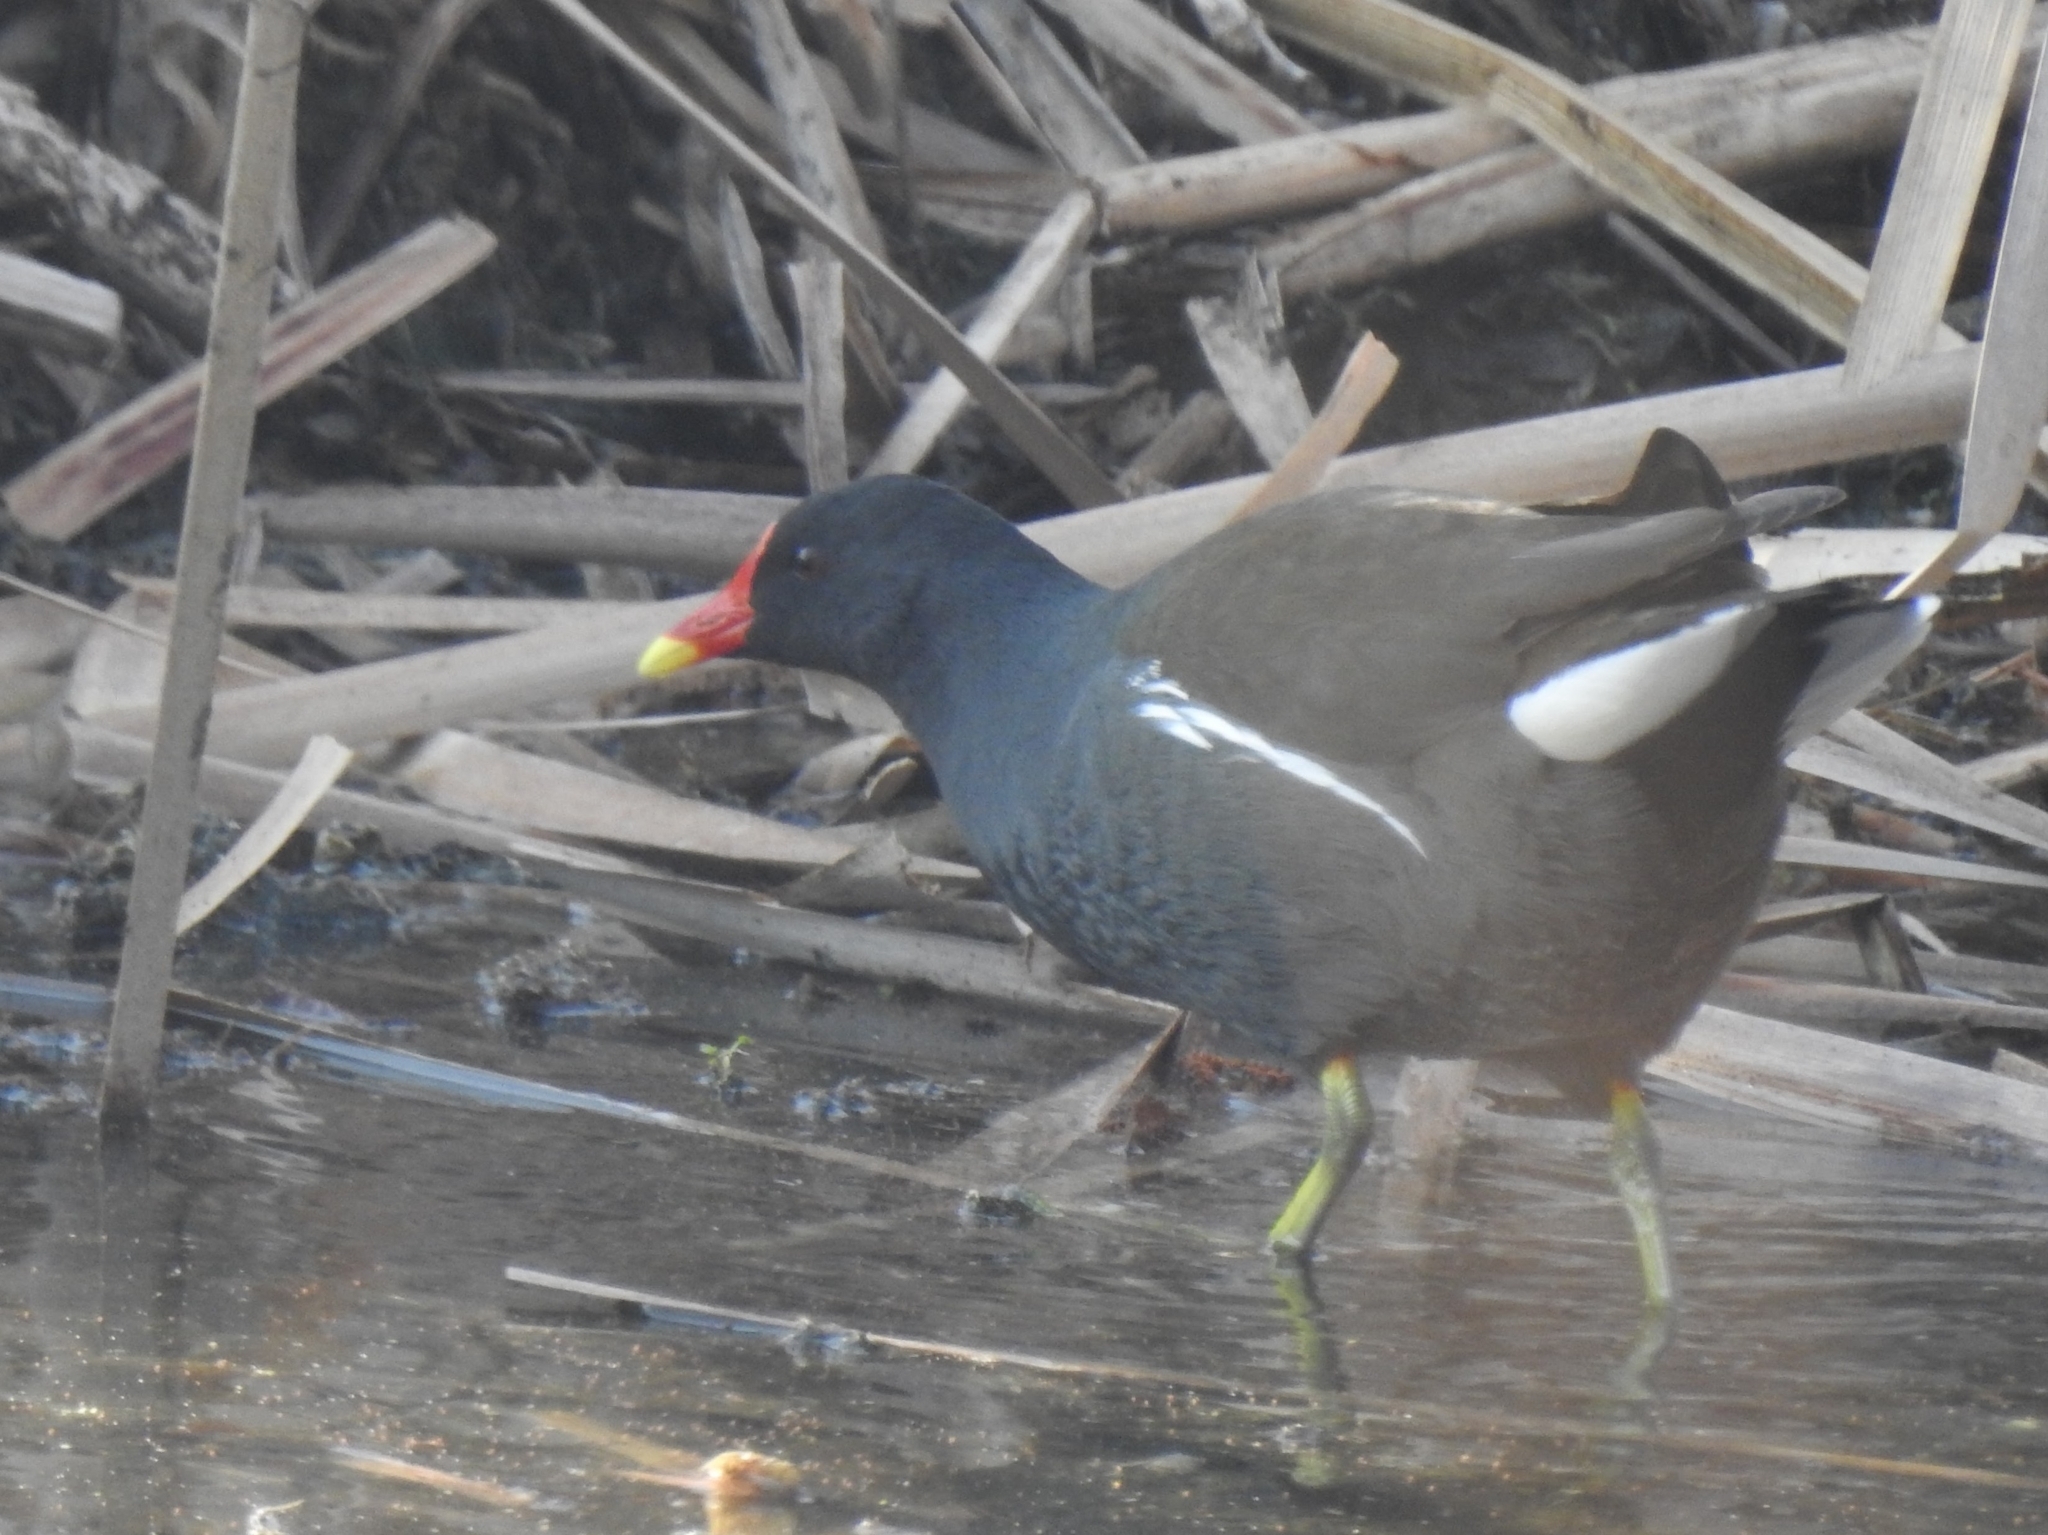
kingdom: Animalia
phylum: Chordata
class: Aves
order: Gruiformes
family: Rallidae
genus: Gallinula
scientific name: Gallinula chloropus
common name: Common moorhen
